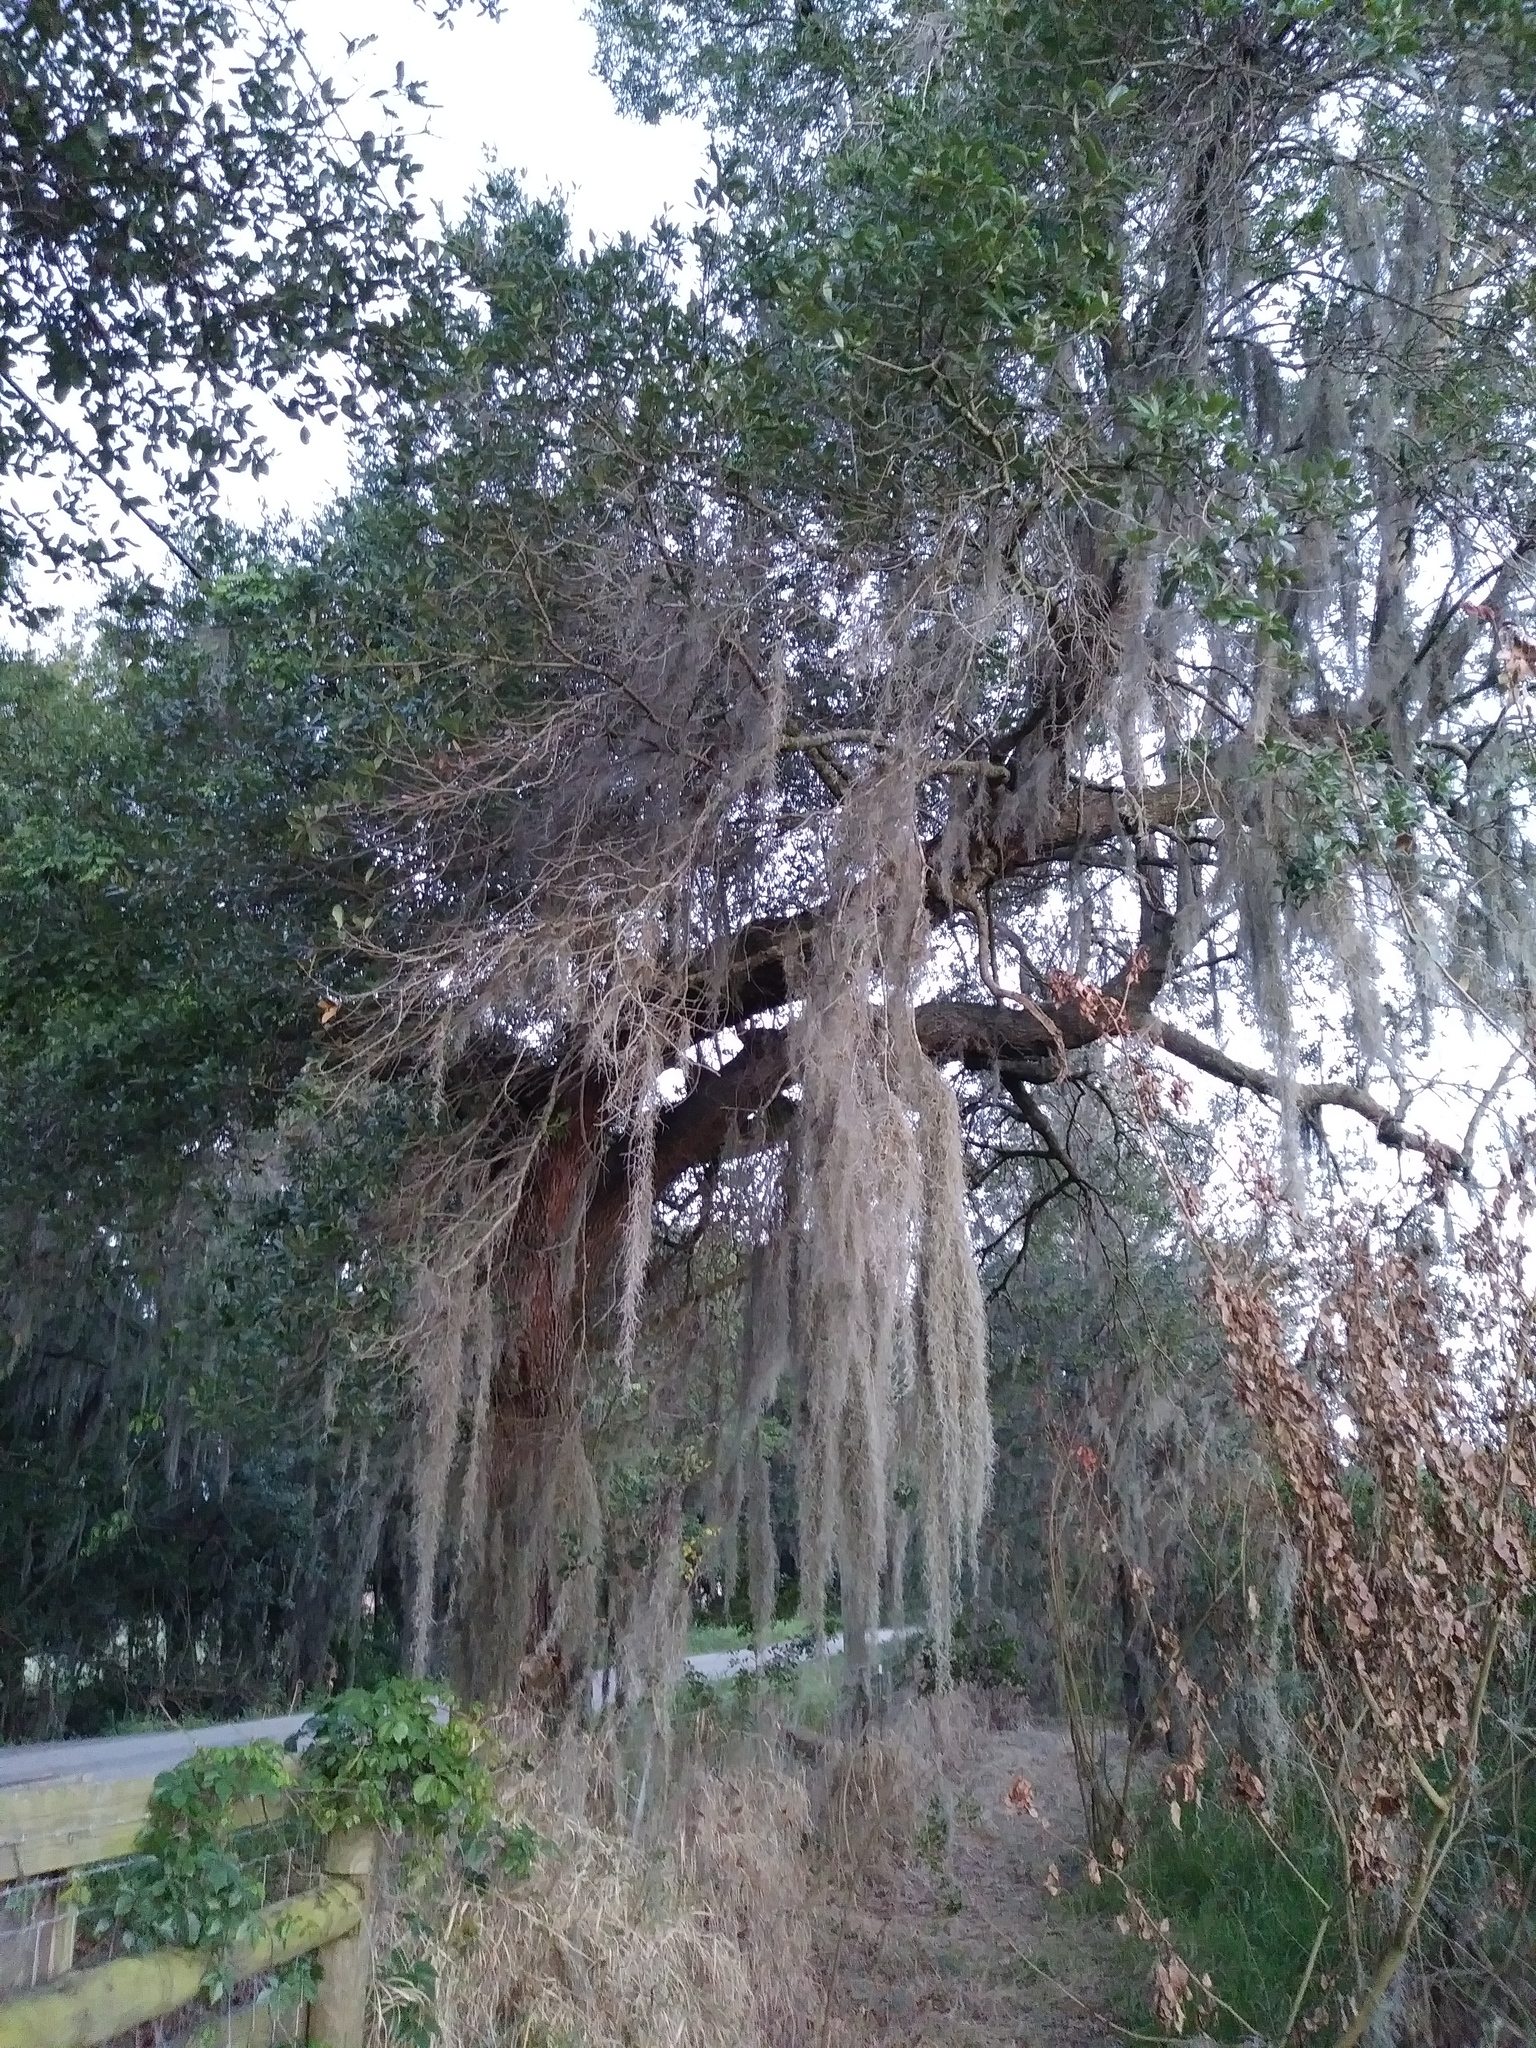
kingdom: Plantae
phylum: Tracheophyta
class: Liliopsida
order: Poales
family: Bromeliaceae
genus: Tillandsia
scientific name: Tillandsia usneoides
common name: Spanish moss
